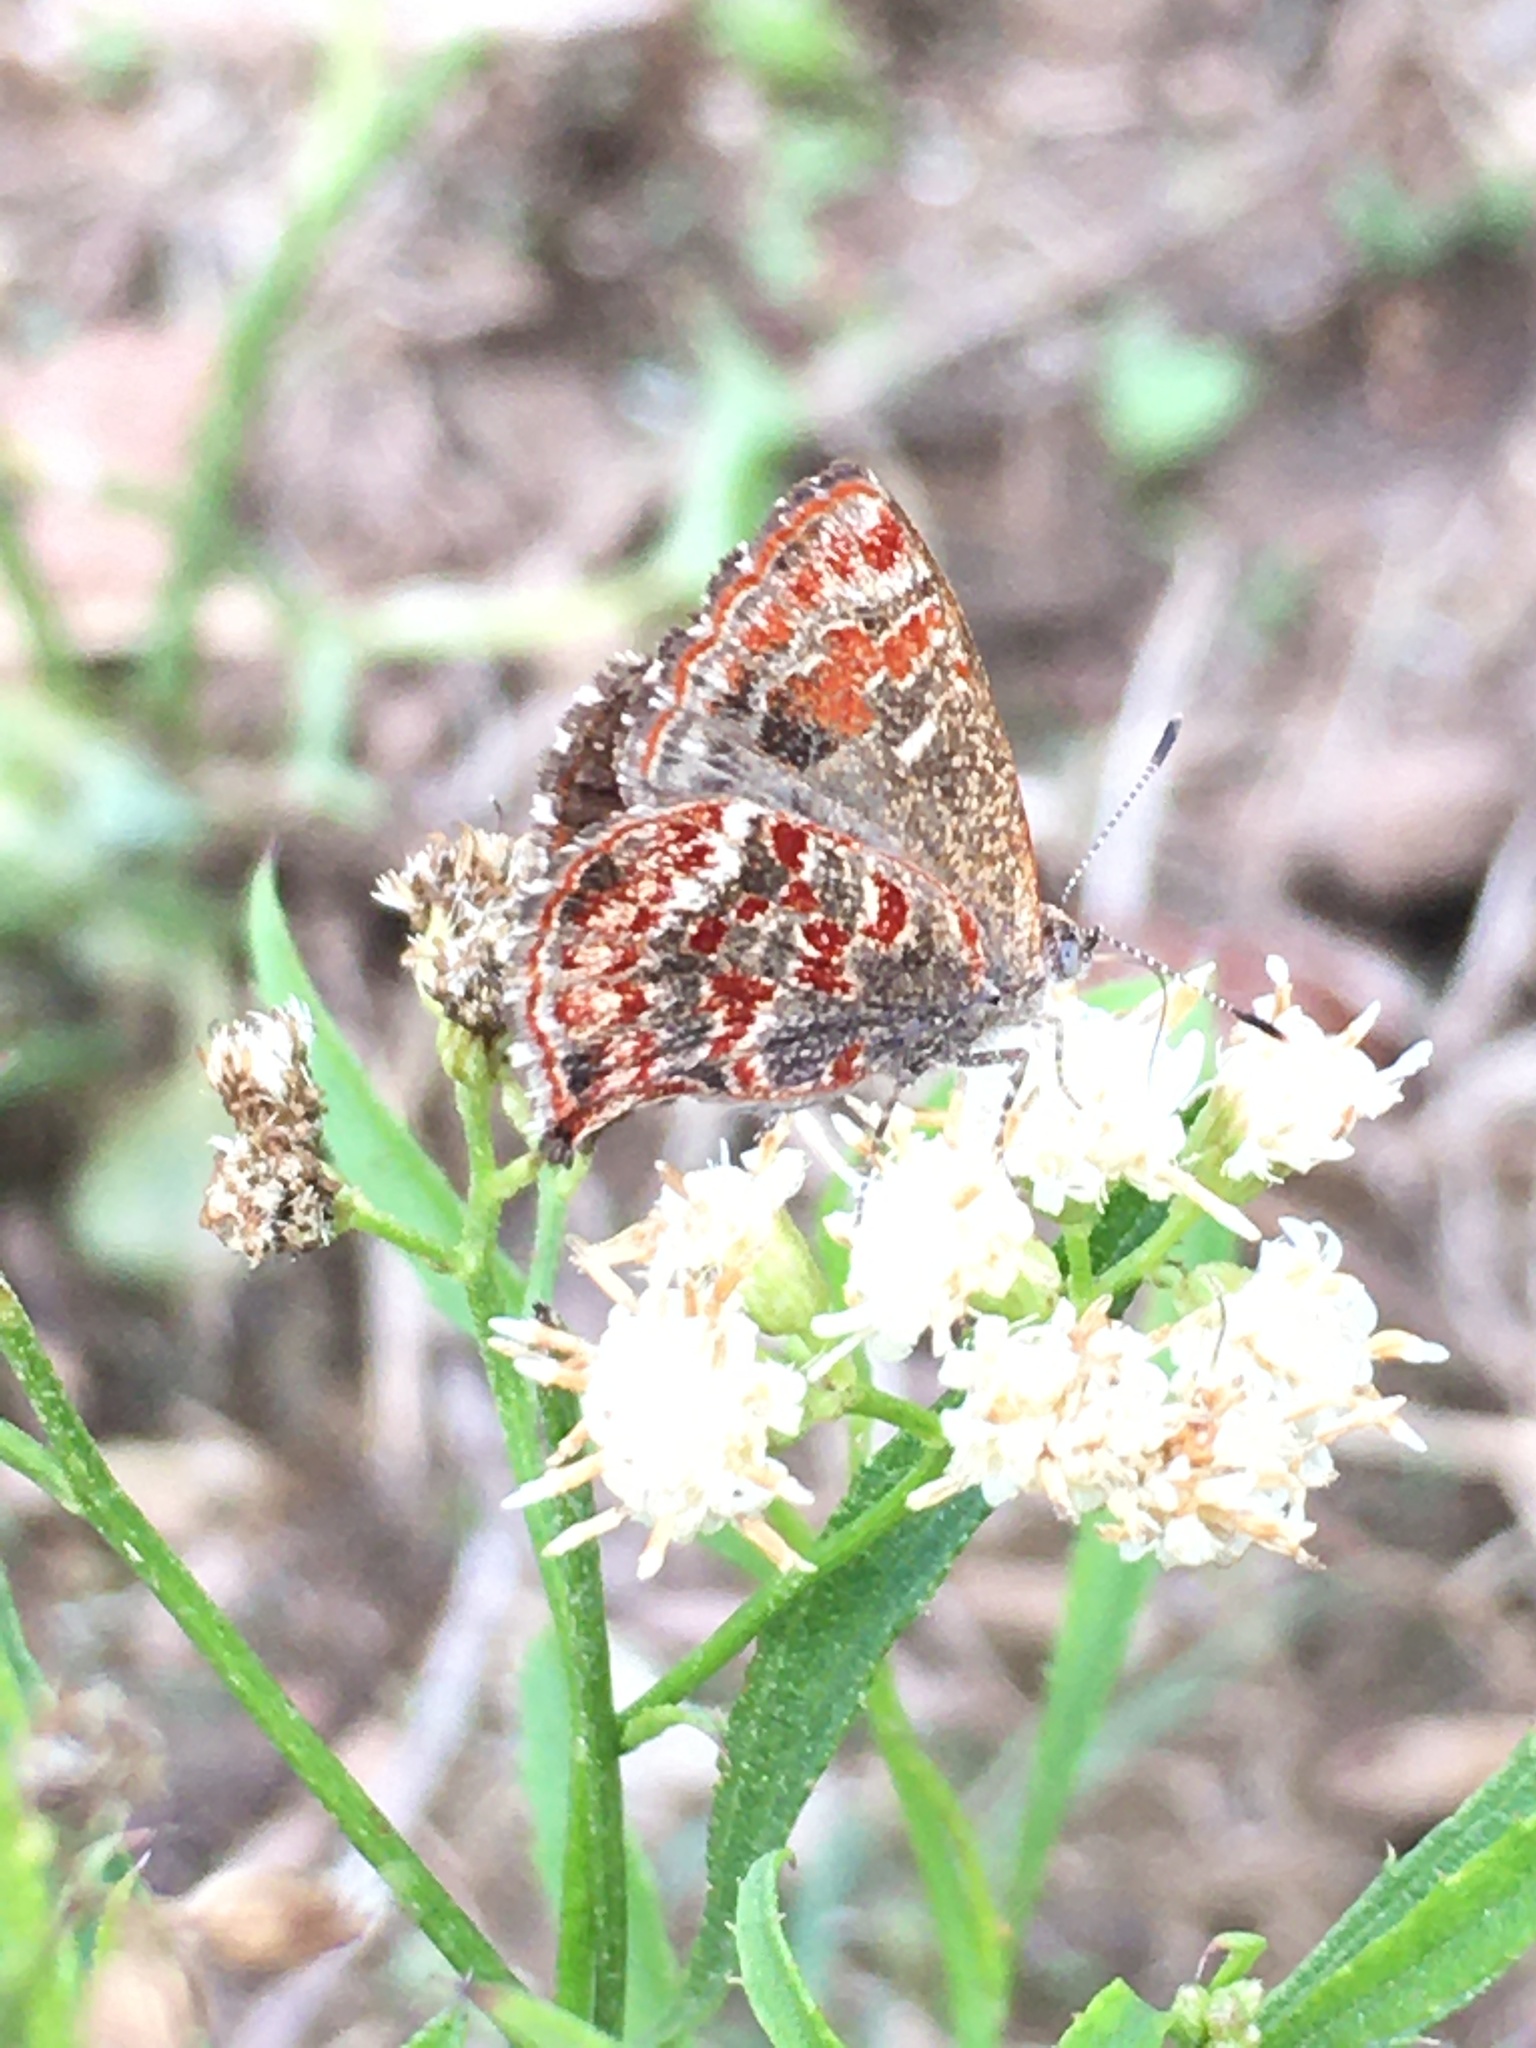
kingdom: Animalia
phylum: Arthropoda
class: Insecta
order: Lepidoptera
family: Lycaenidae
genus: Ministrymon
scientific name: Ministrymon
